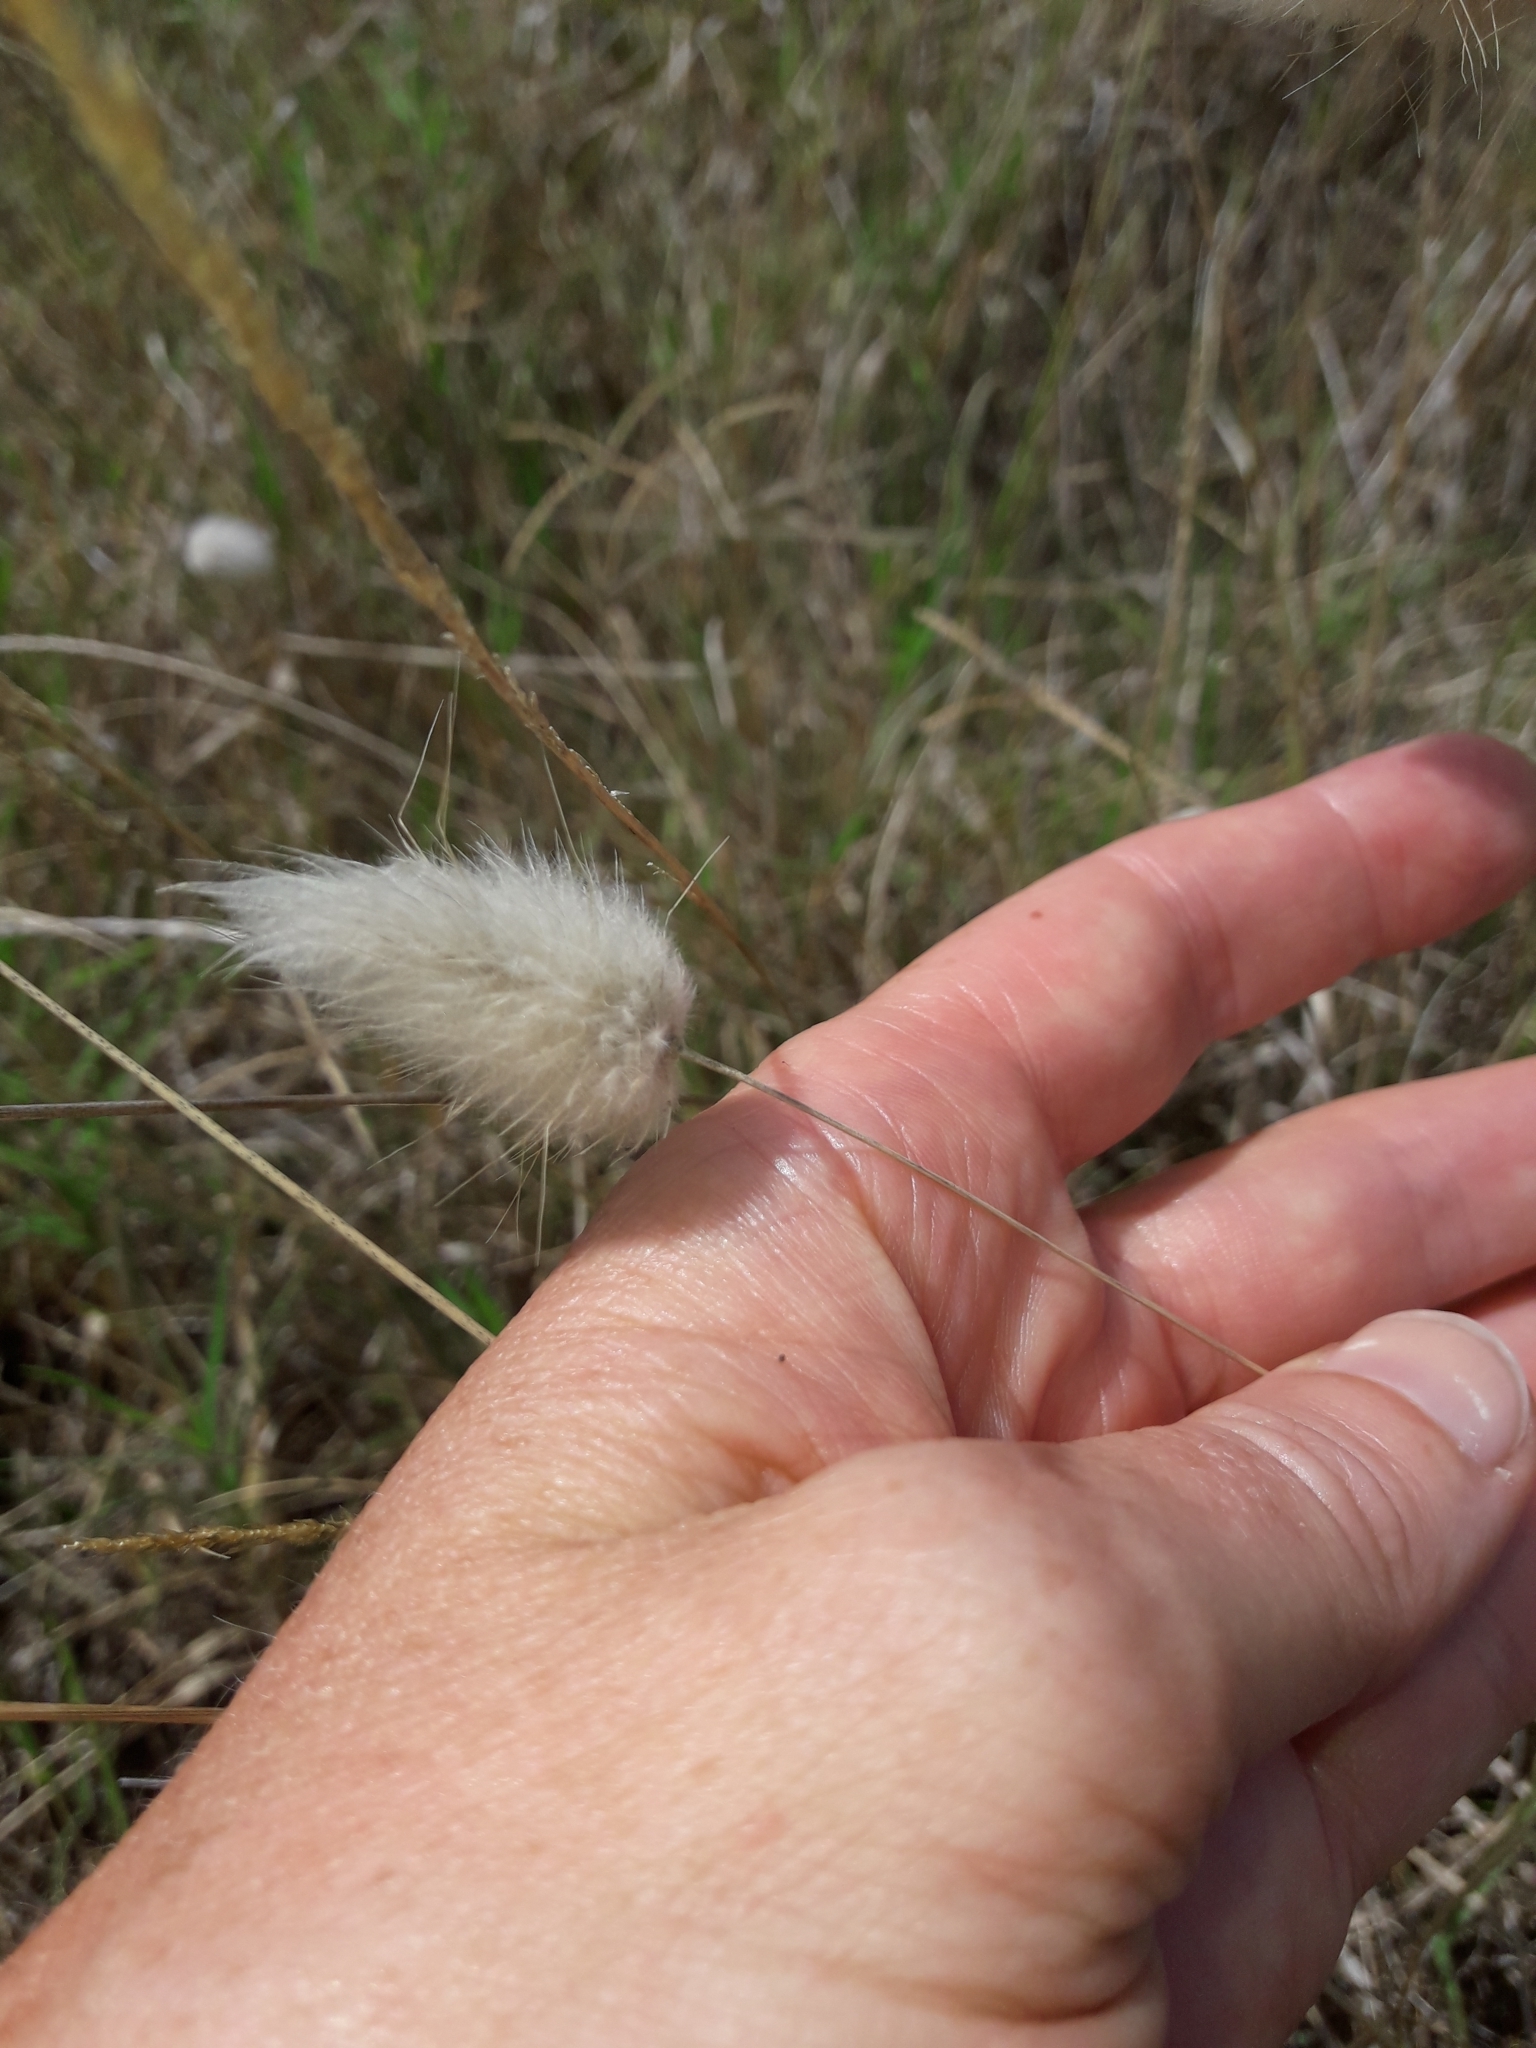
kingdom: Plantae
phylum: Tracheophyta
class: Liliopsida
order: Poales
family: Poaceae
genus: Lagurus
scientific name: Lagurus ovatus
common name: Hare's-tail
